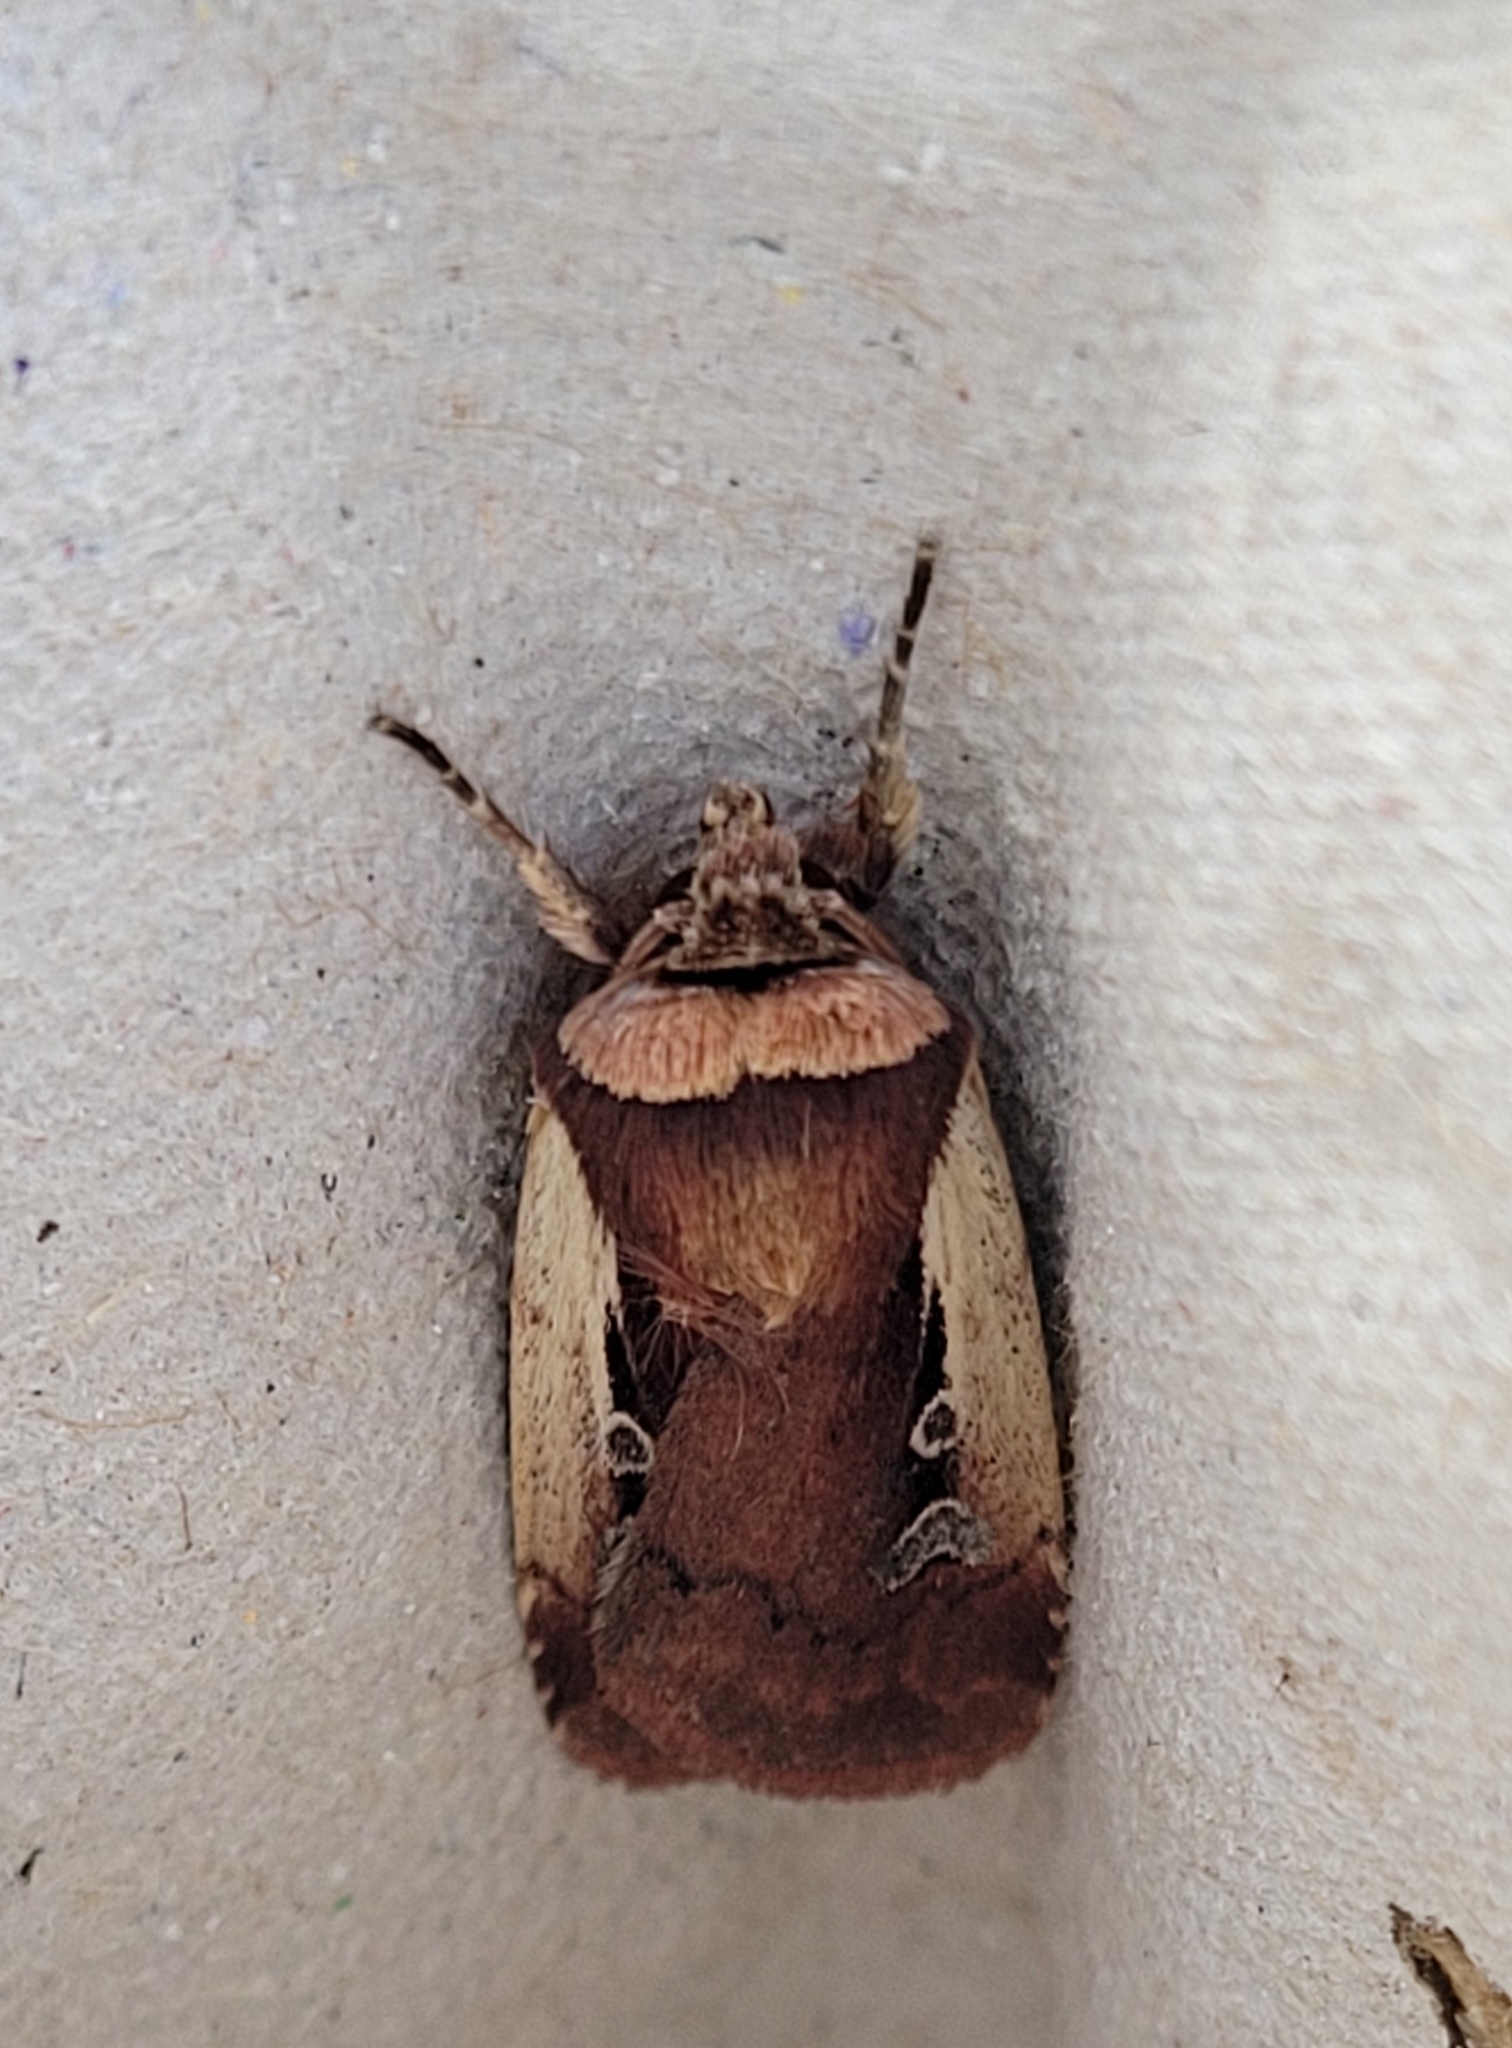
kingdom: Animalia
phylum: Arthropoda
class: Insecta
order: Lepidoptera
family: Noctuidae
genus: Ochropleura
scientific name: Ochropleura plecta
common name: Flame shoulder
